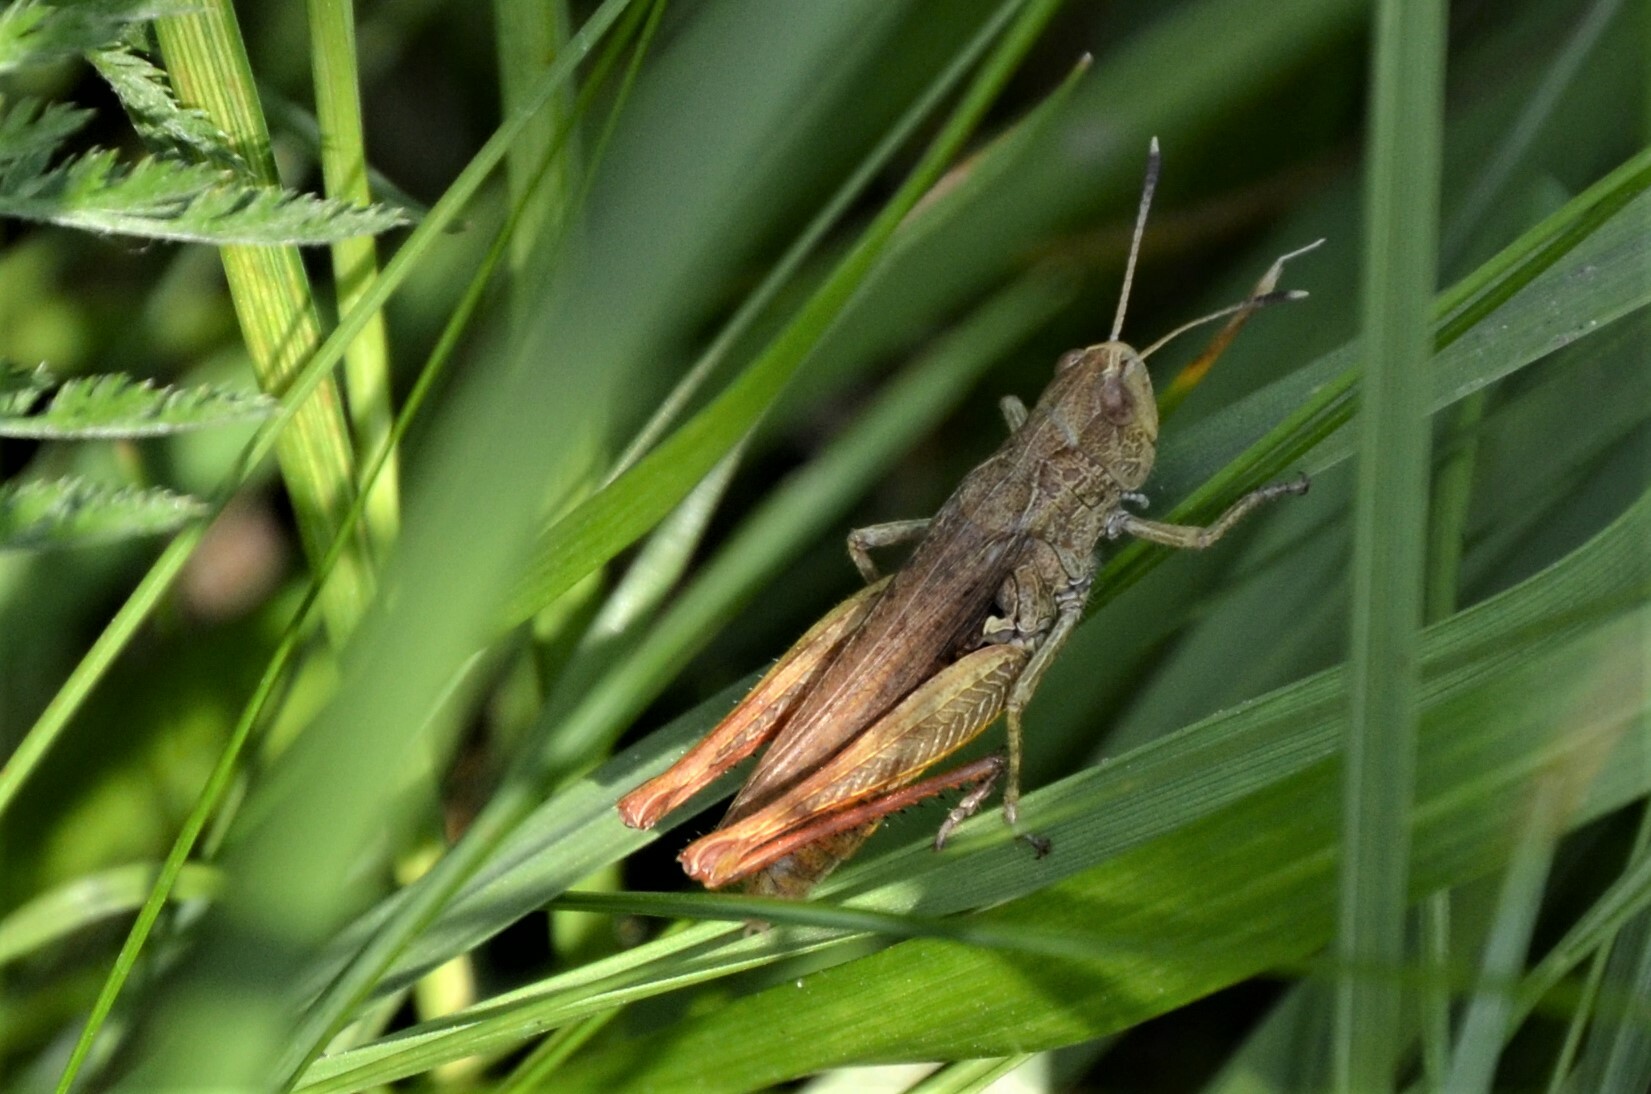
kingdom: Animalia
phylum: Arthropoda
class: Insecta
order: Orthoptera
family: Acrididae
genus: Gomphocerippus
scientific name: Gomphocerippus rufus
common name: Rufous grasshopper
